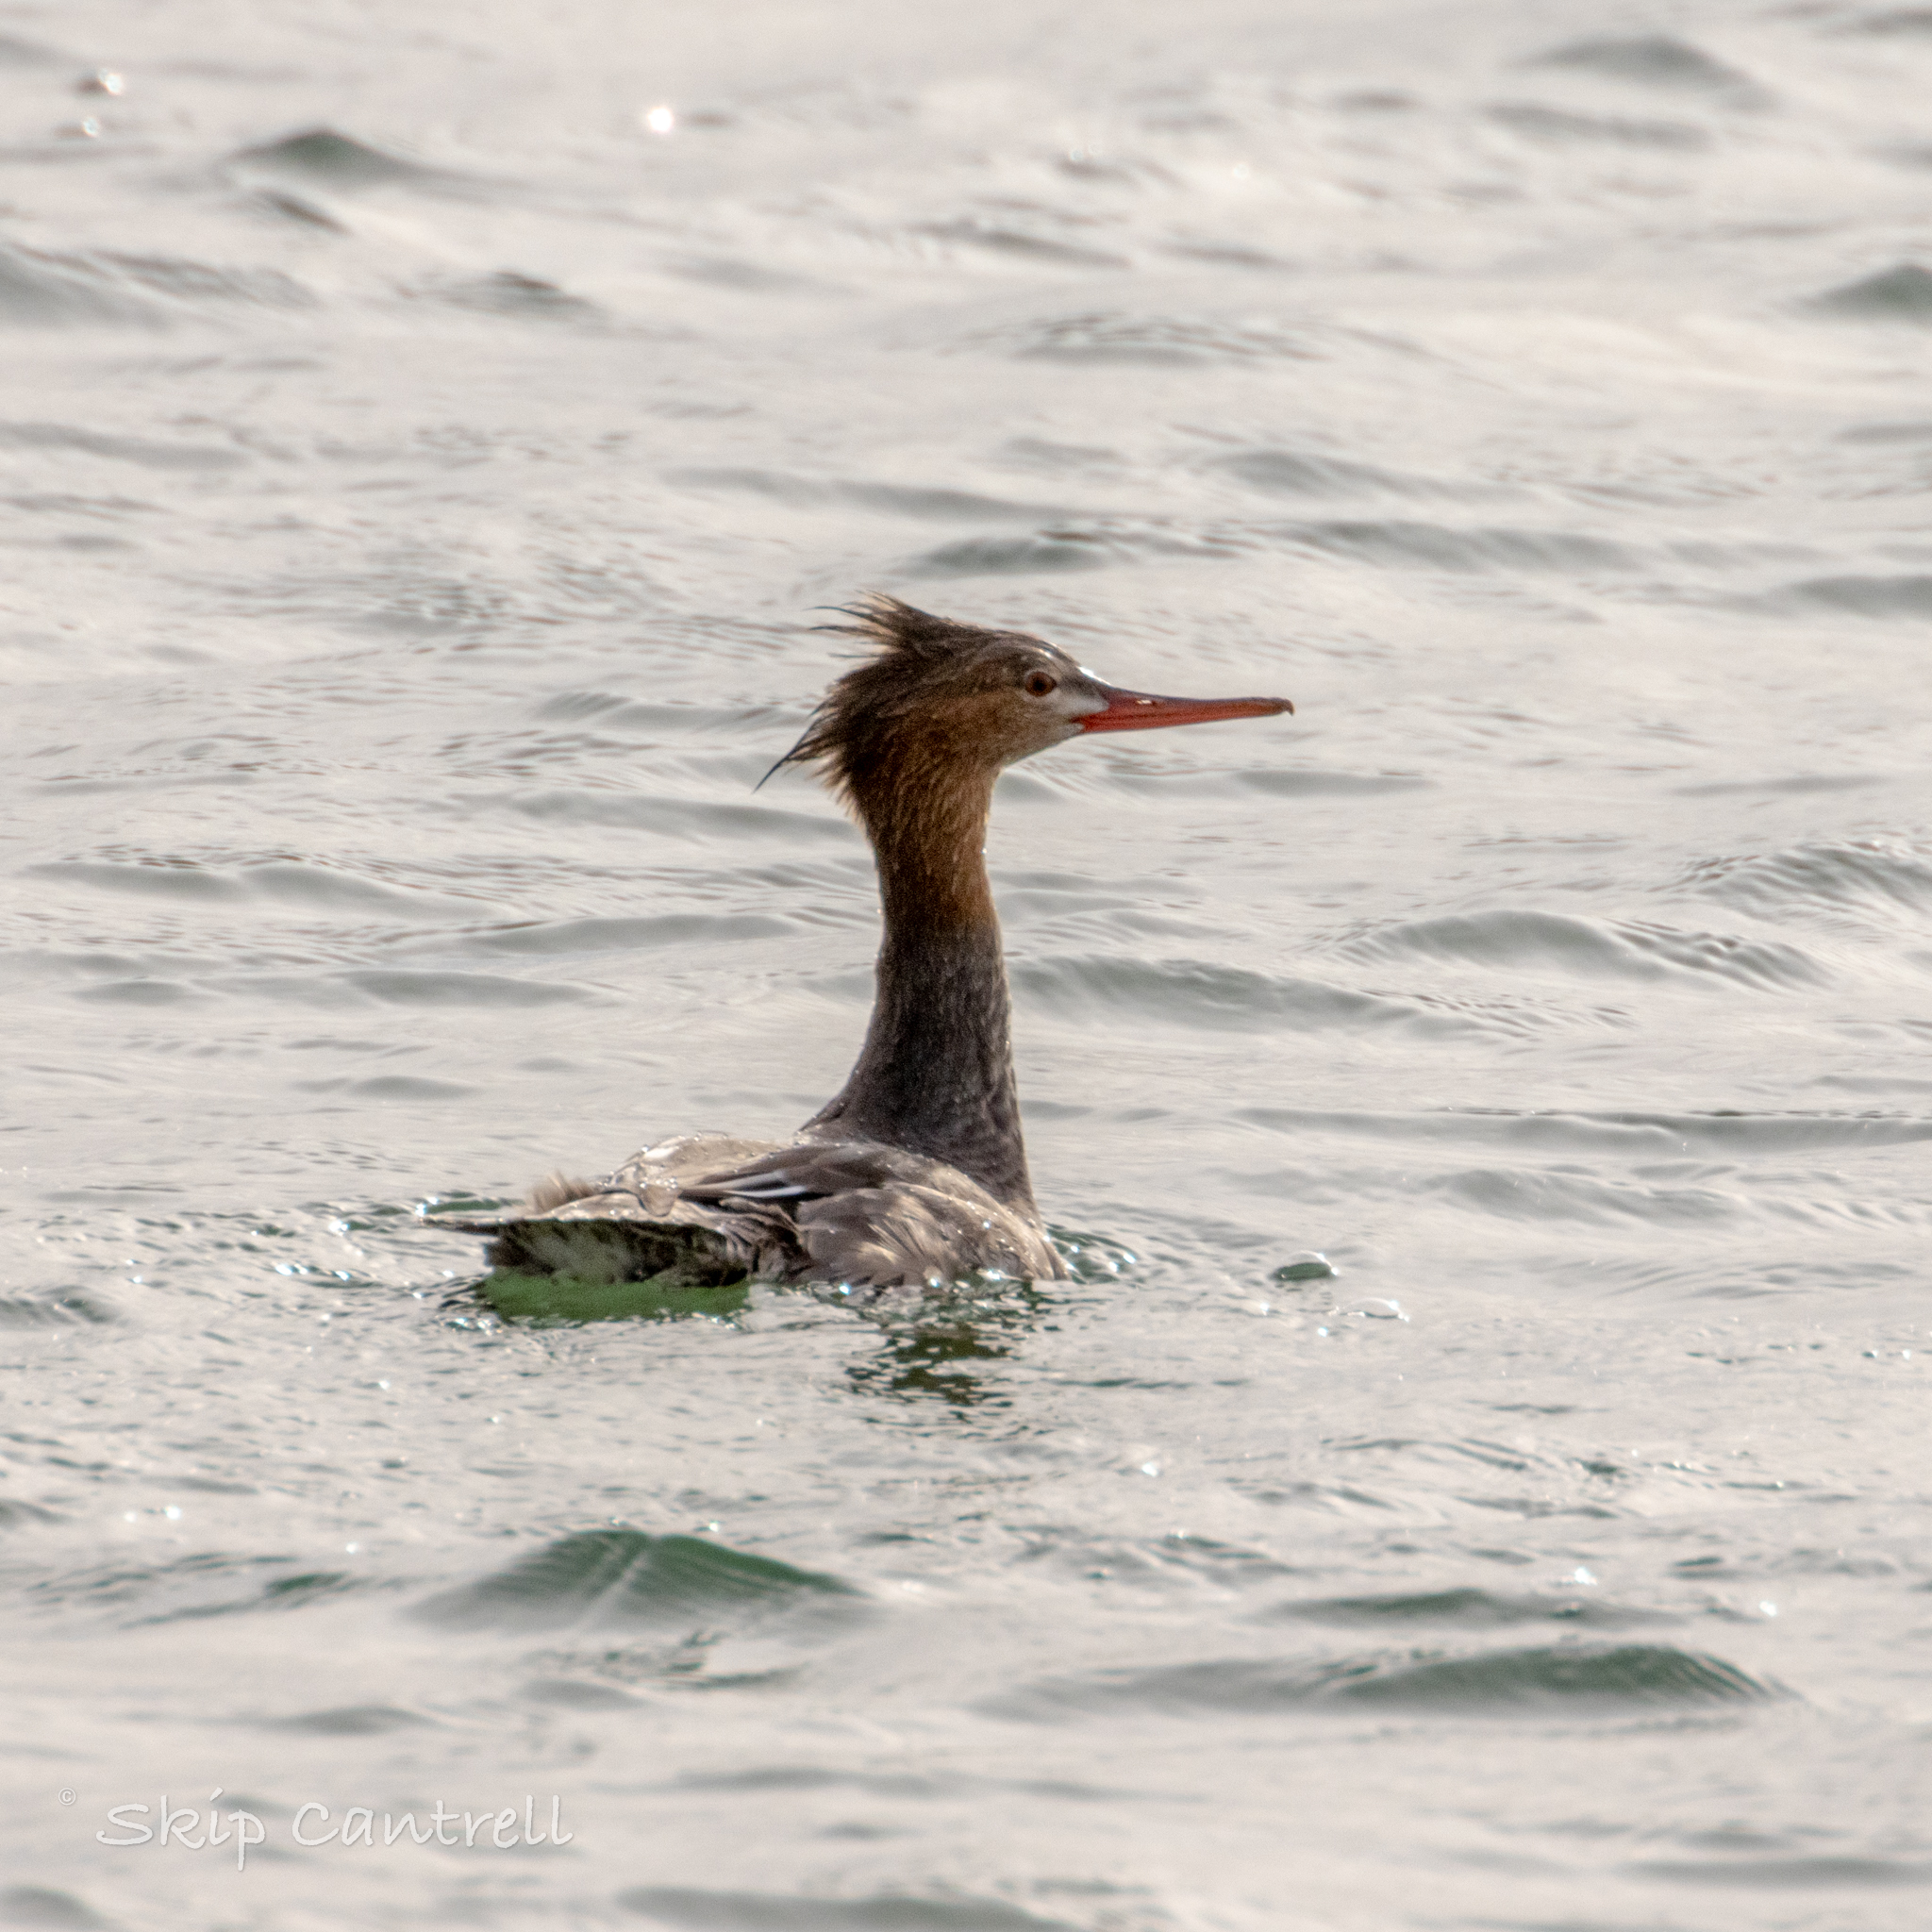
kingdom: Animalia
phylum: Chordata
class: Aves
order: Anseriformes
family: Anatidae
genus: Mergus
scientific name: Mergus serrator
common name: Red-breasted merganser
